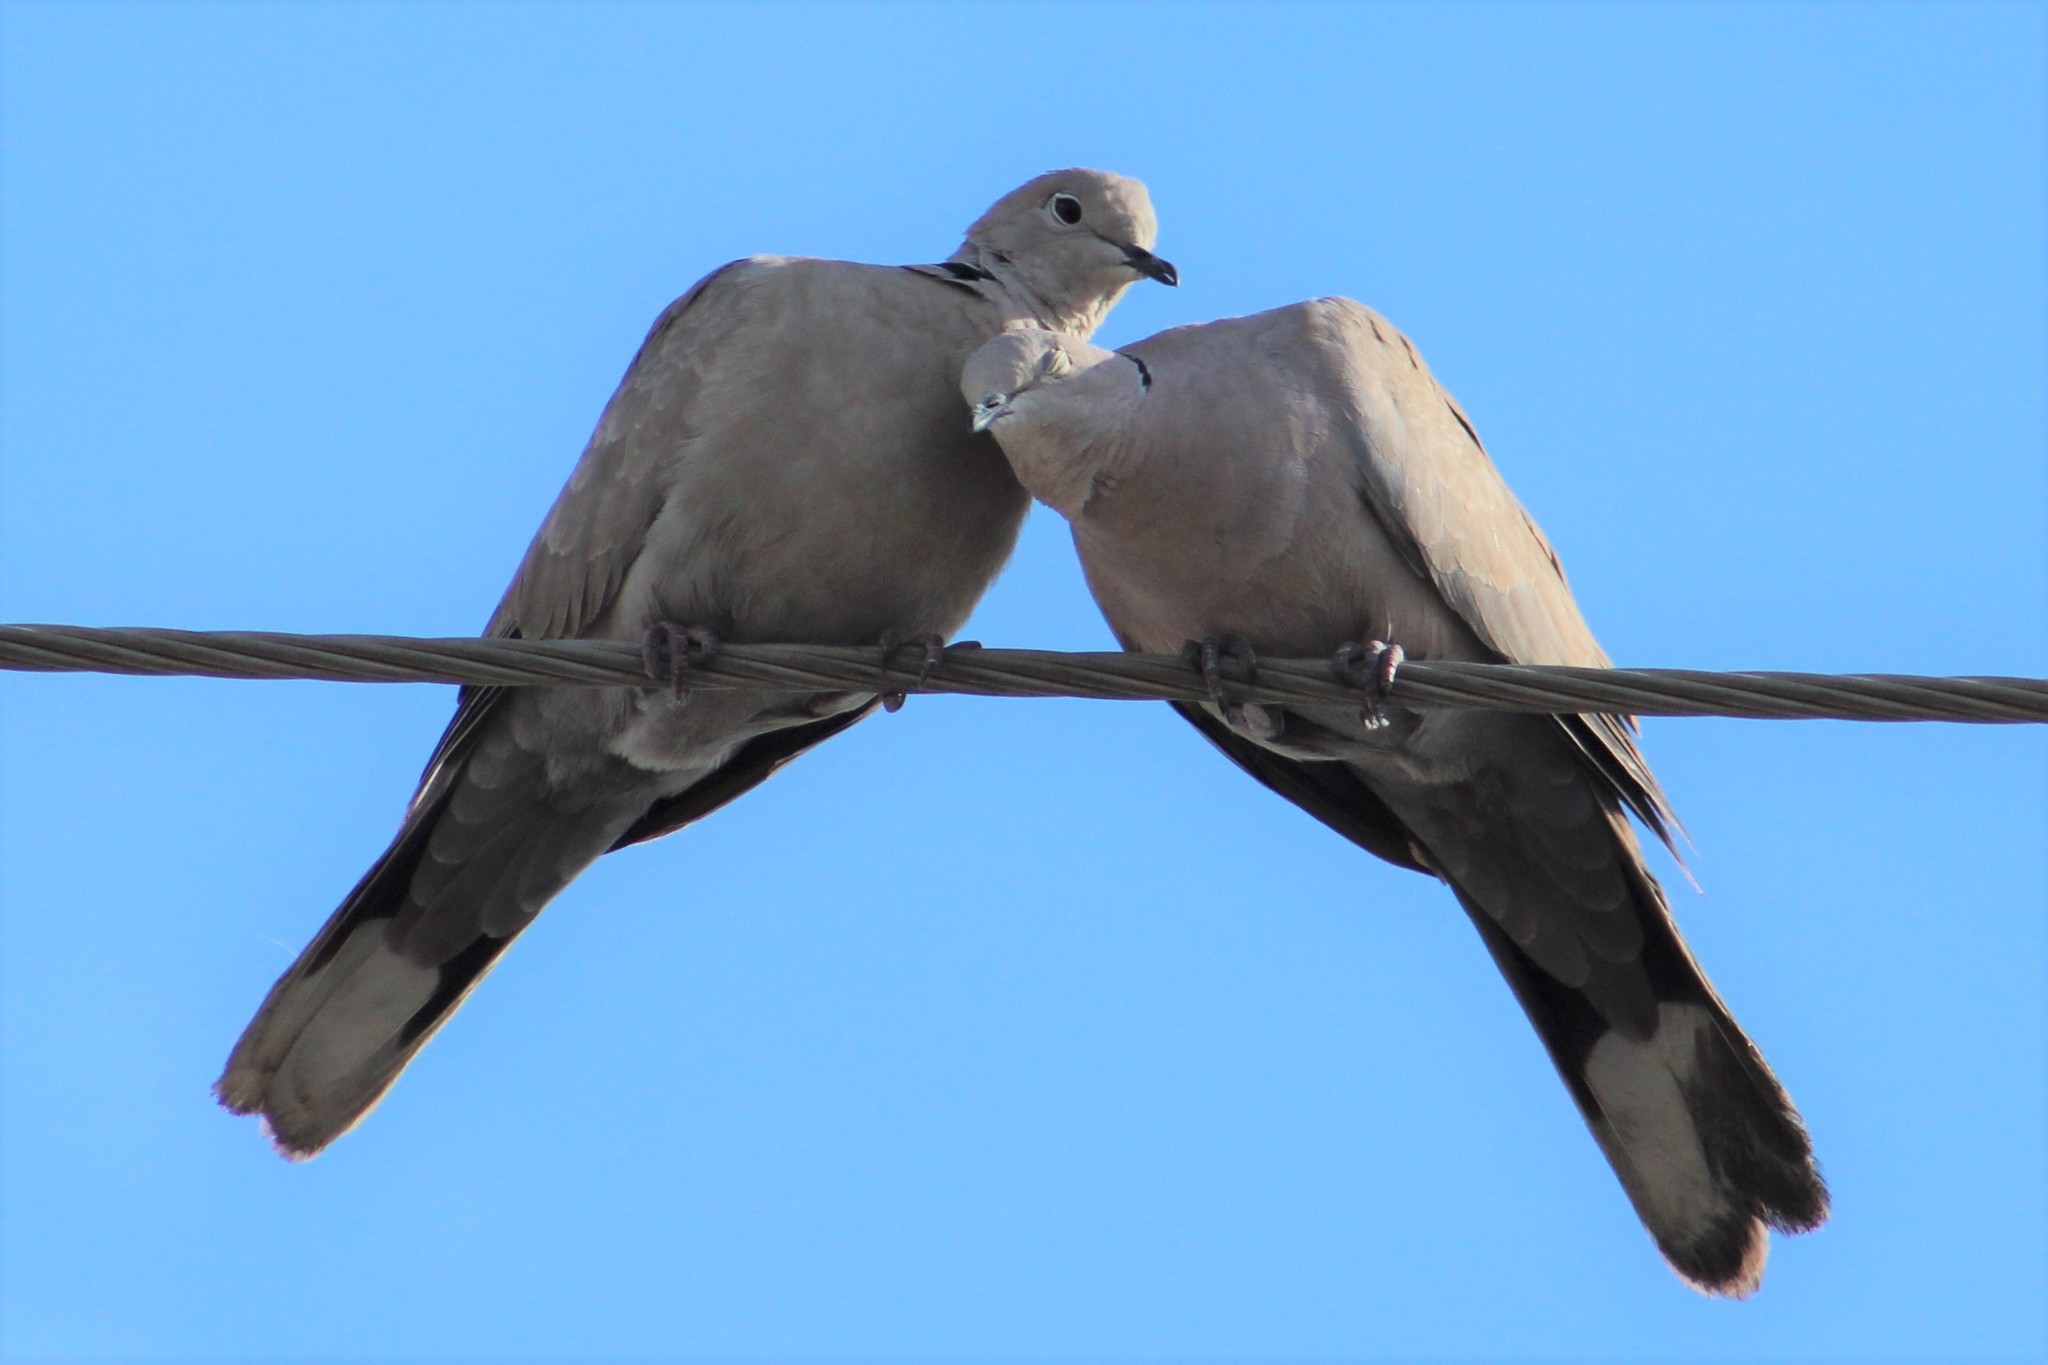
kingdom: Animalia
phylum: Chordata
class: Aves
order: Columbiformes
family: Columbidae
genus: Streptopelia
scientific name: Streptopelia decaocto
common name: Eurasian collared dove
